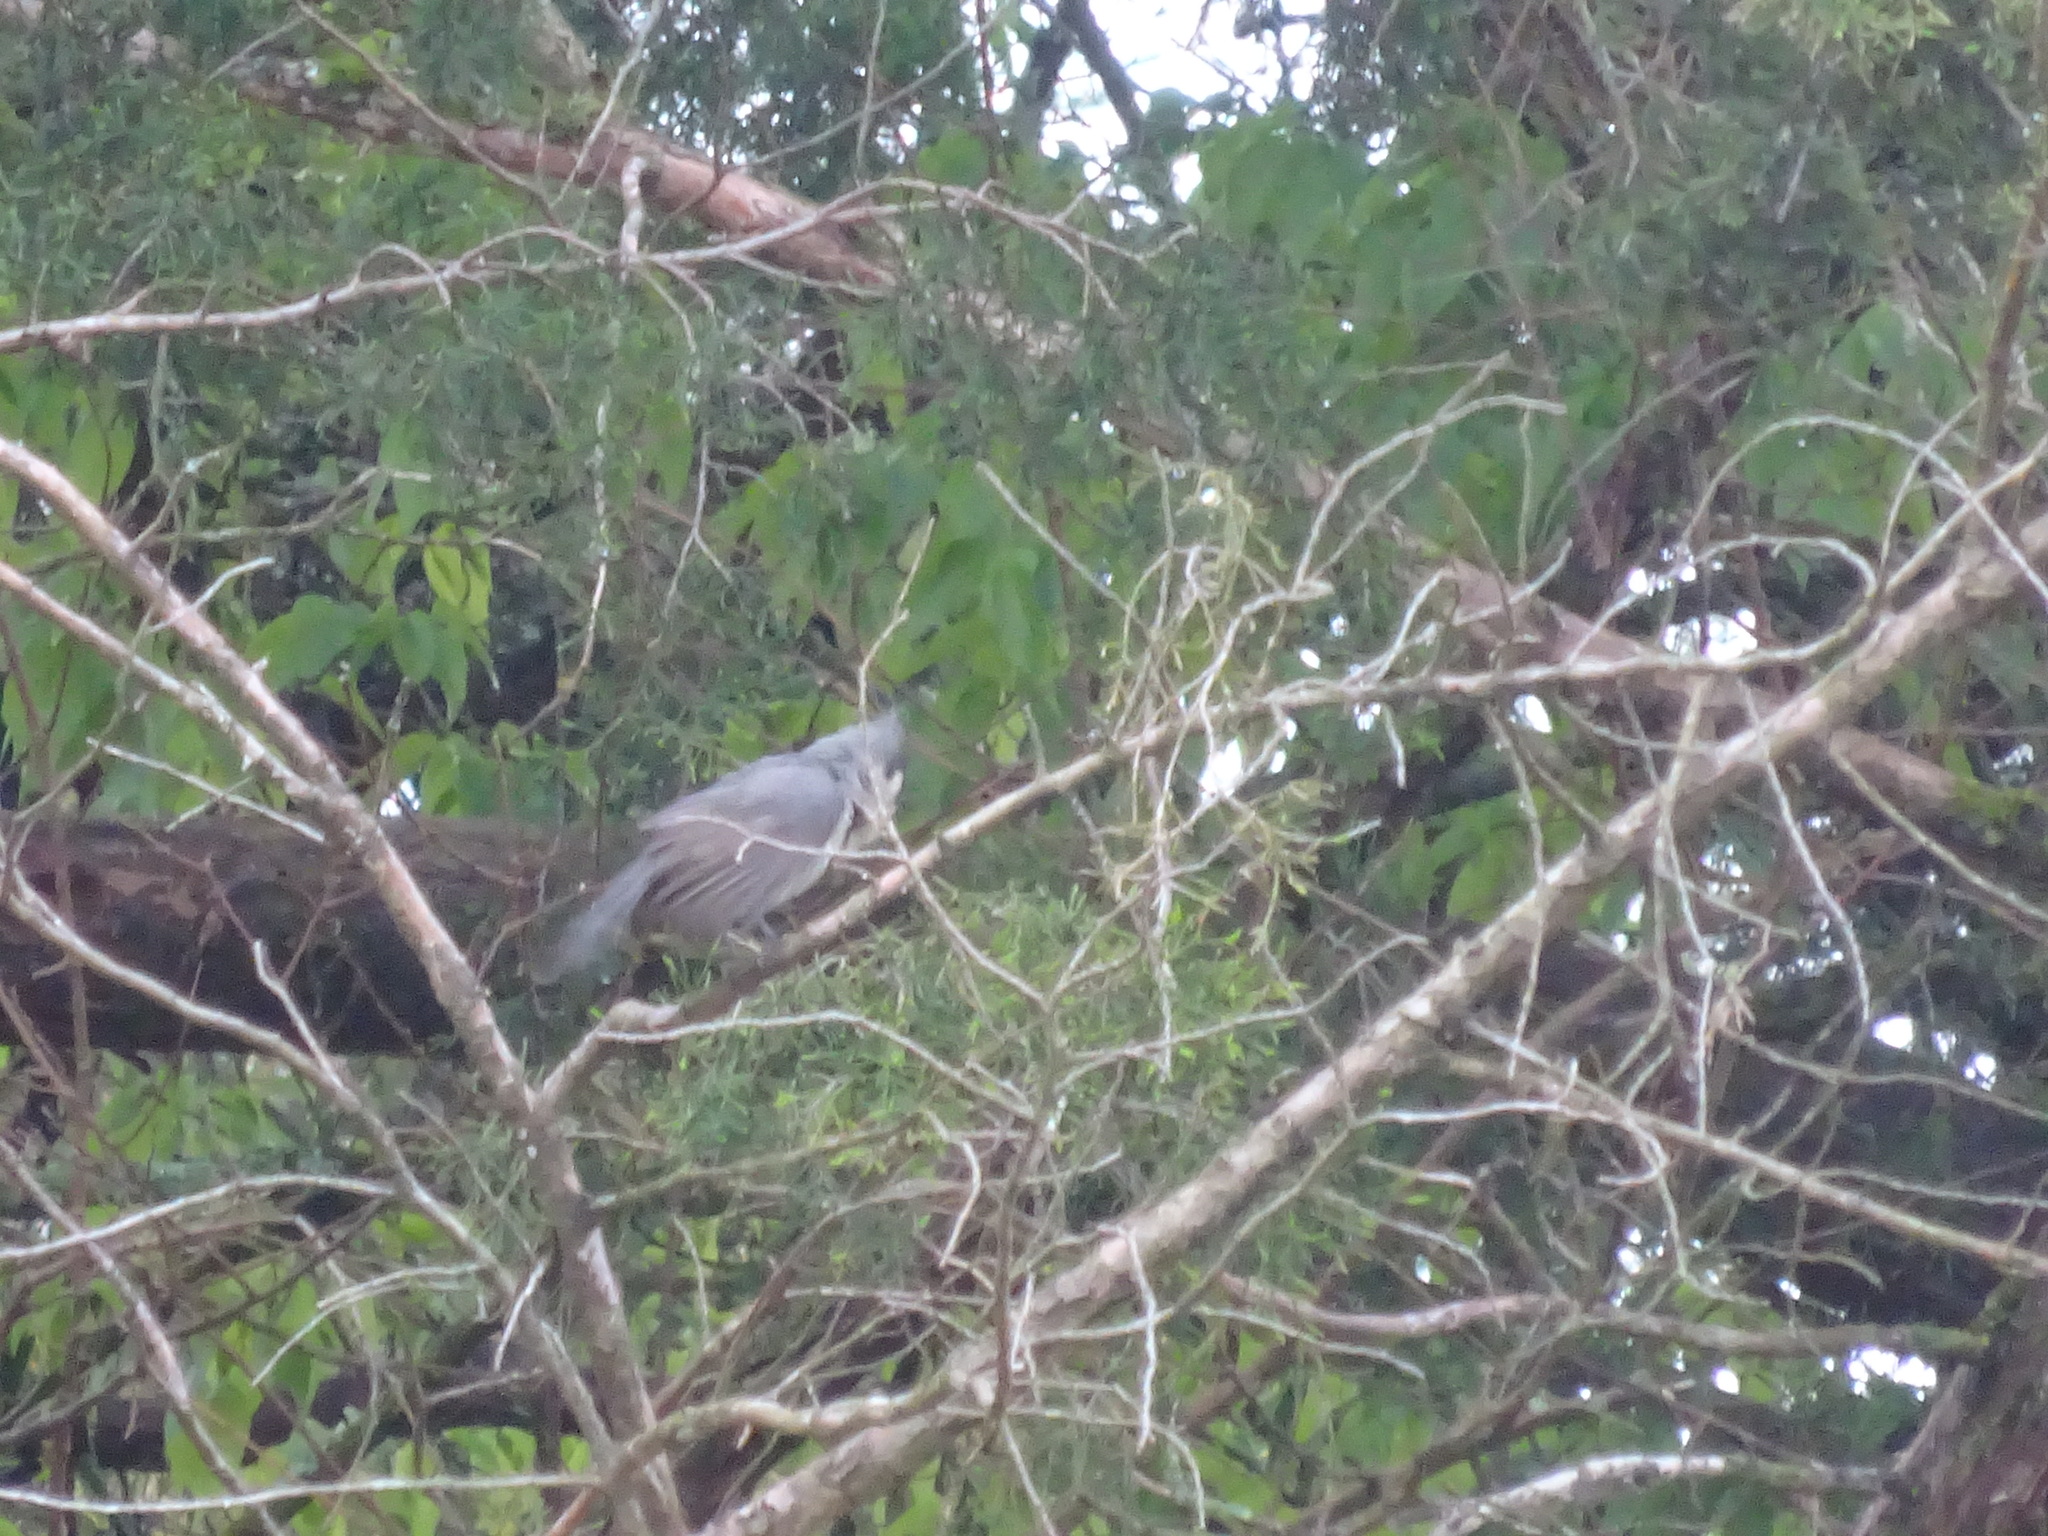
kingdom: Animalia
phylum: Chordata
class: Aves
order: Passeriformes
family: Paridae
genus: Baeolophus
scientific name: Baeolophus bicolor
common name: Tufted titmouse
